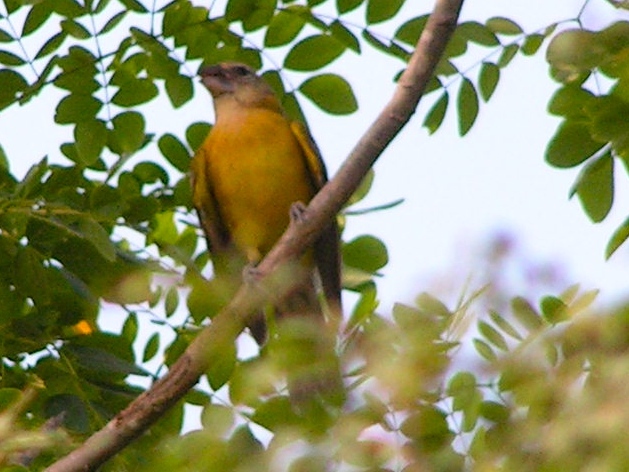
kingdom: Animalia
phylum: Chordata
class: Aves
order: Passeriformes
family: Cardinalidae
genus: Pheucticus
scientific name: Pheucticus chrysopeplus
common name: Yellow grosbeak
